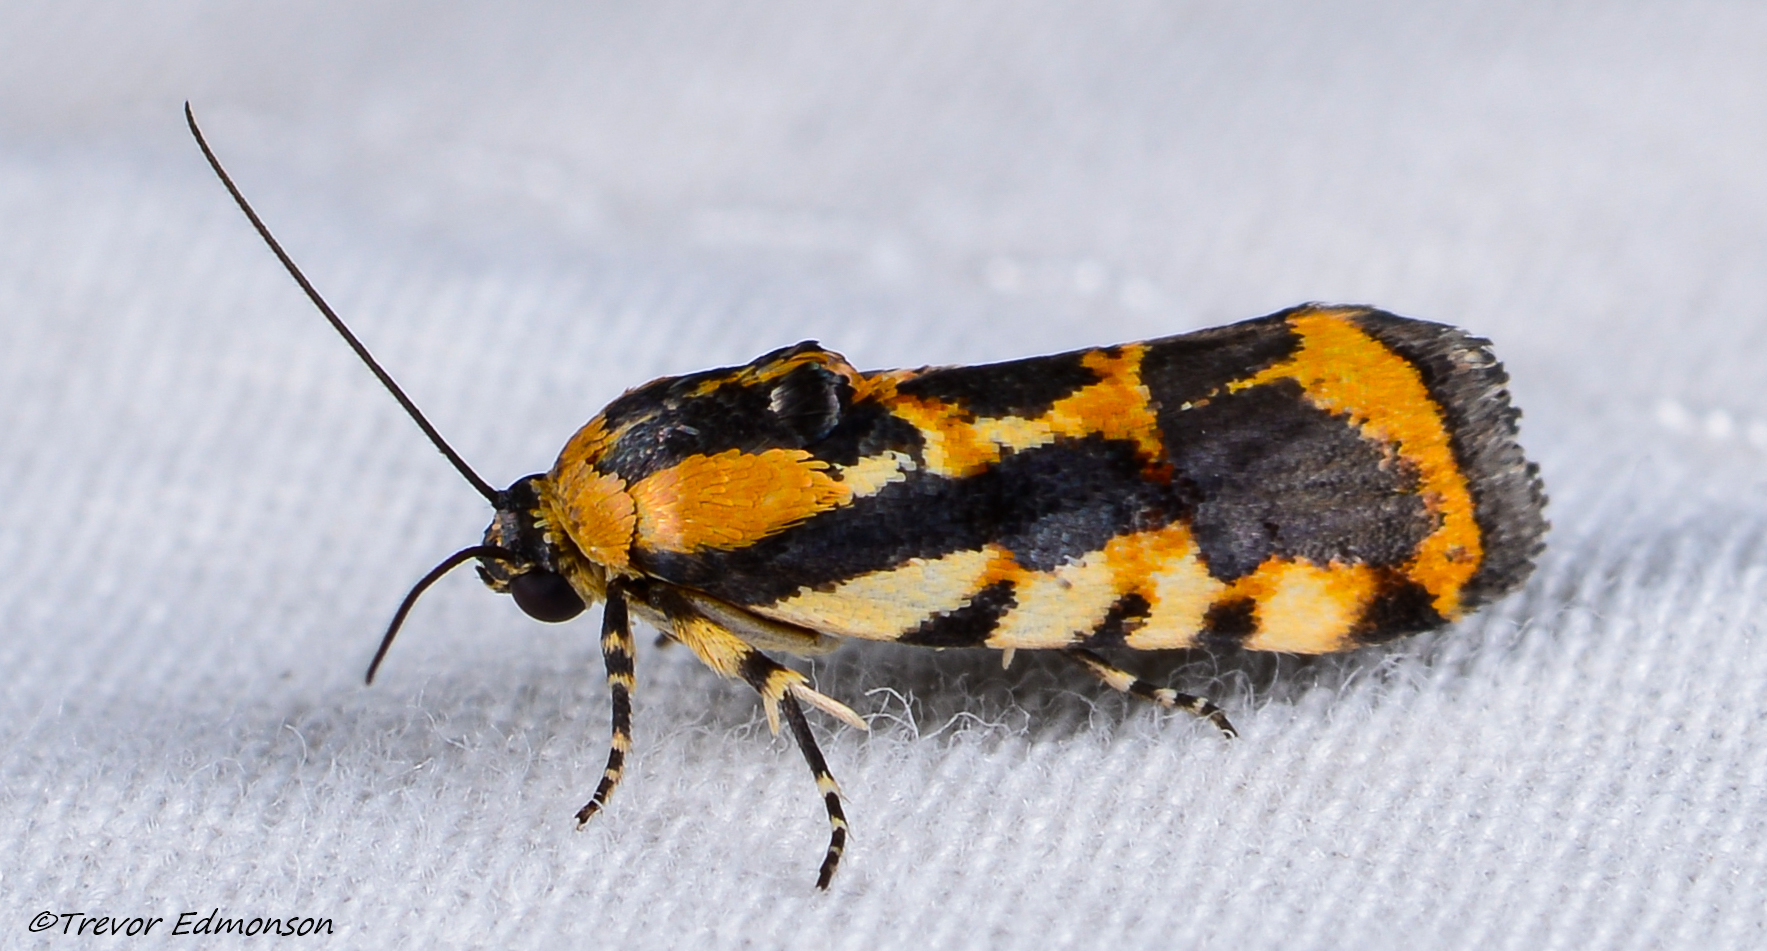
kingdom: Animalia
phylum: Arthropoda
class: Insecta
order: Lepidoptera
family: Noctuidae
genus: Acontia
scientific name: Acontia leo
